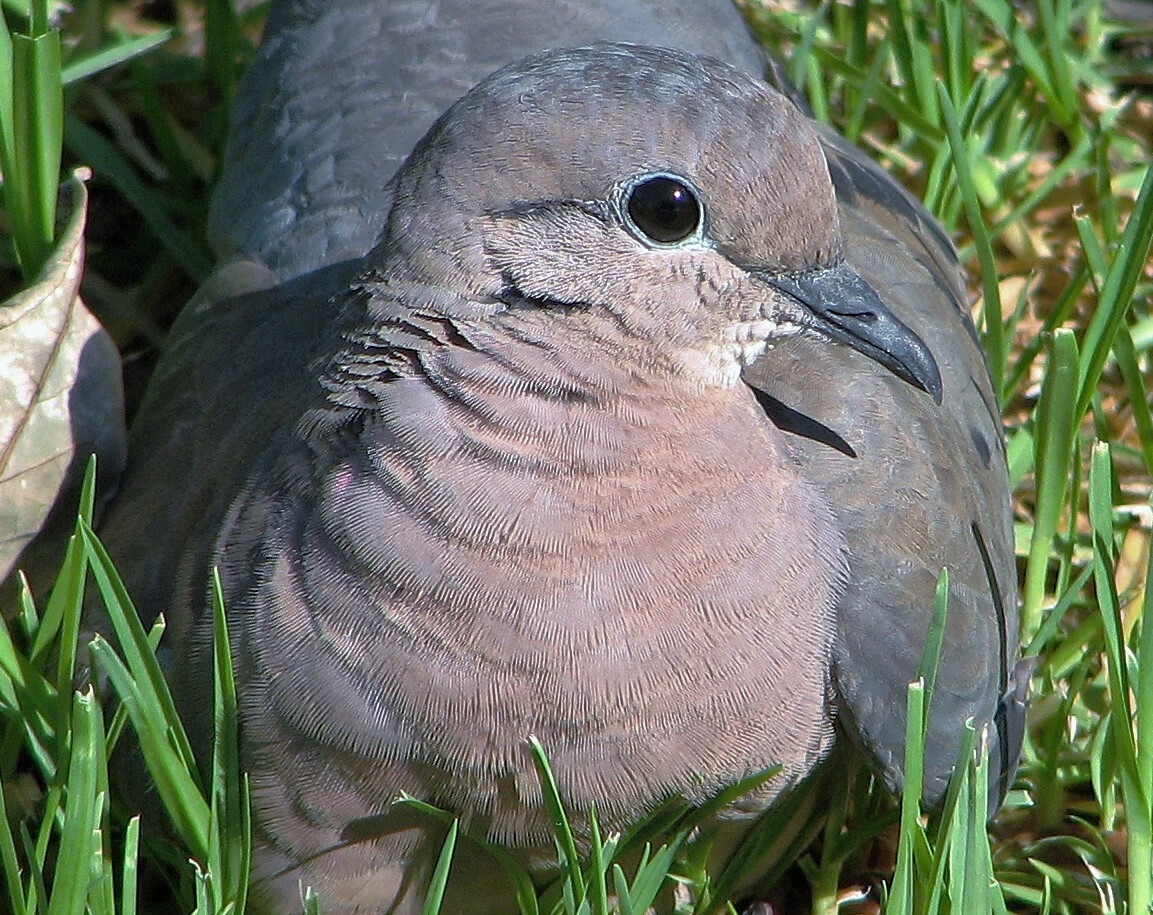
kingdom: Animalia
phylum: Chordata
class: Aves
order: Columbiformes
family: Columbidae
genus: Zenaida
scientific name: Zenaida auriculata
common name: Eared dove
